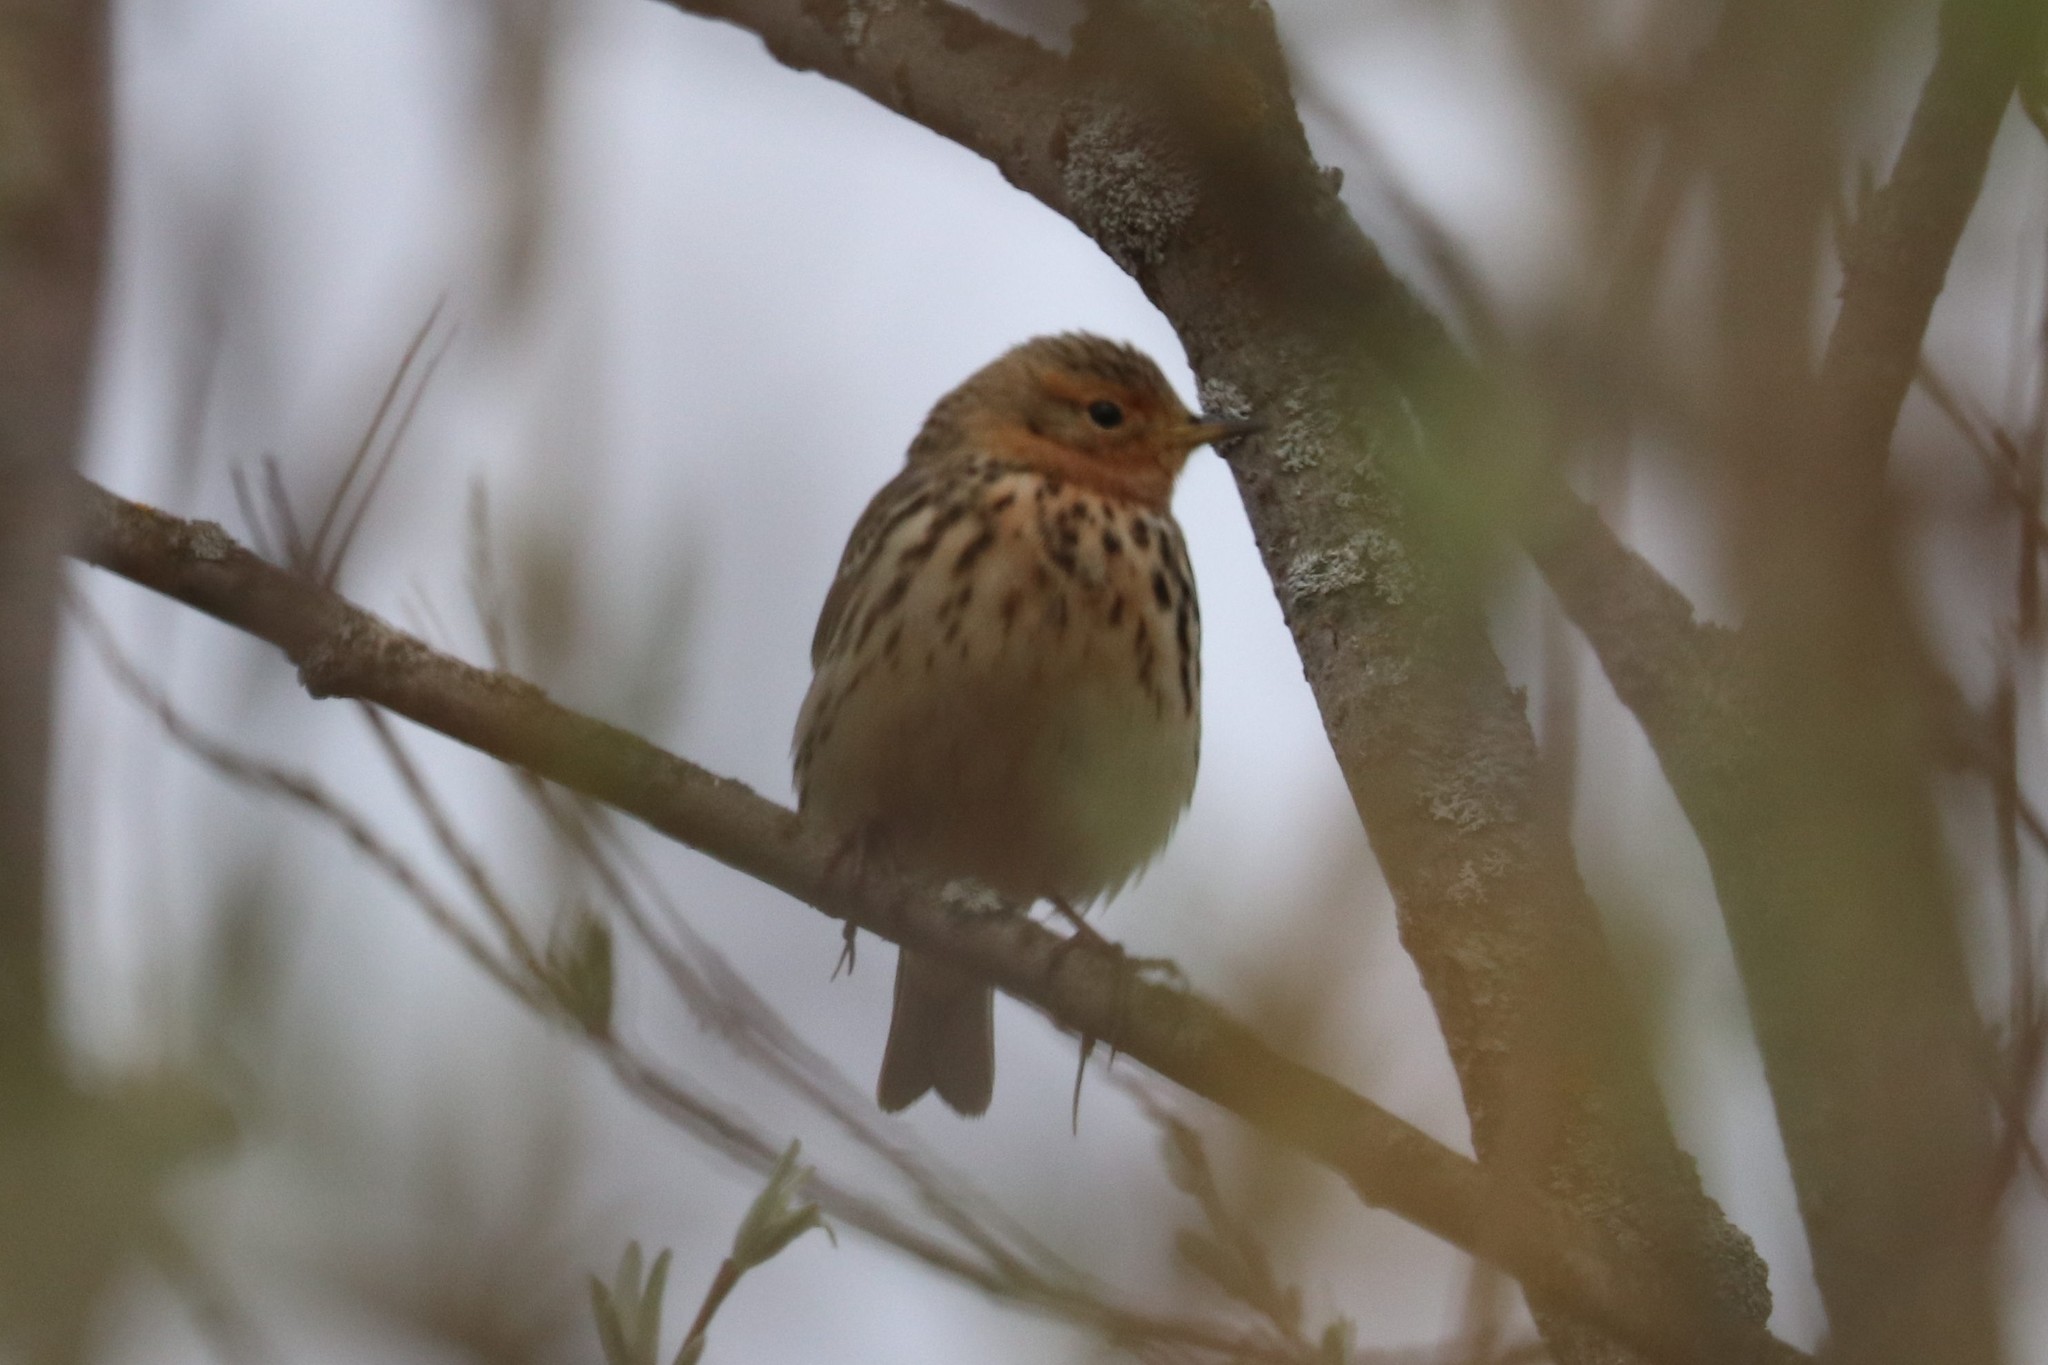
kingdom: Animalia
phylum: Chordata
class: Aves
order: Passeriformes
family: Motacillidae
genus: Anthus
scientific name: Anthus cervinus
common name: Red-throated pipit
